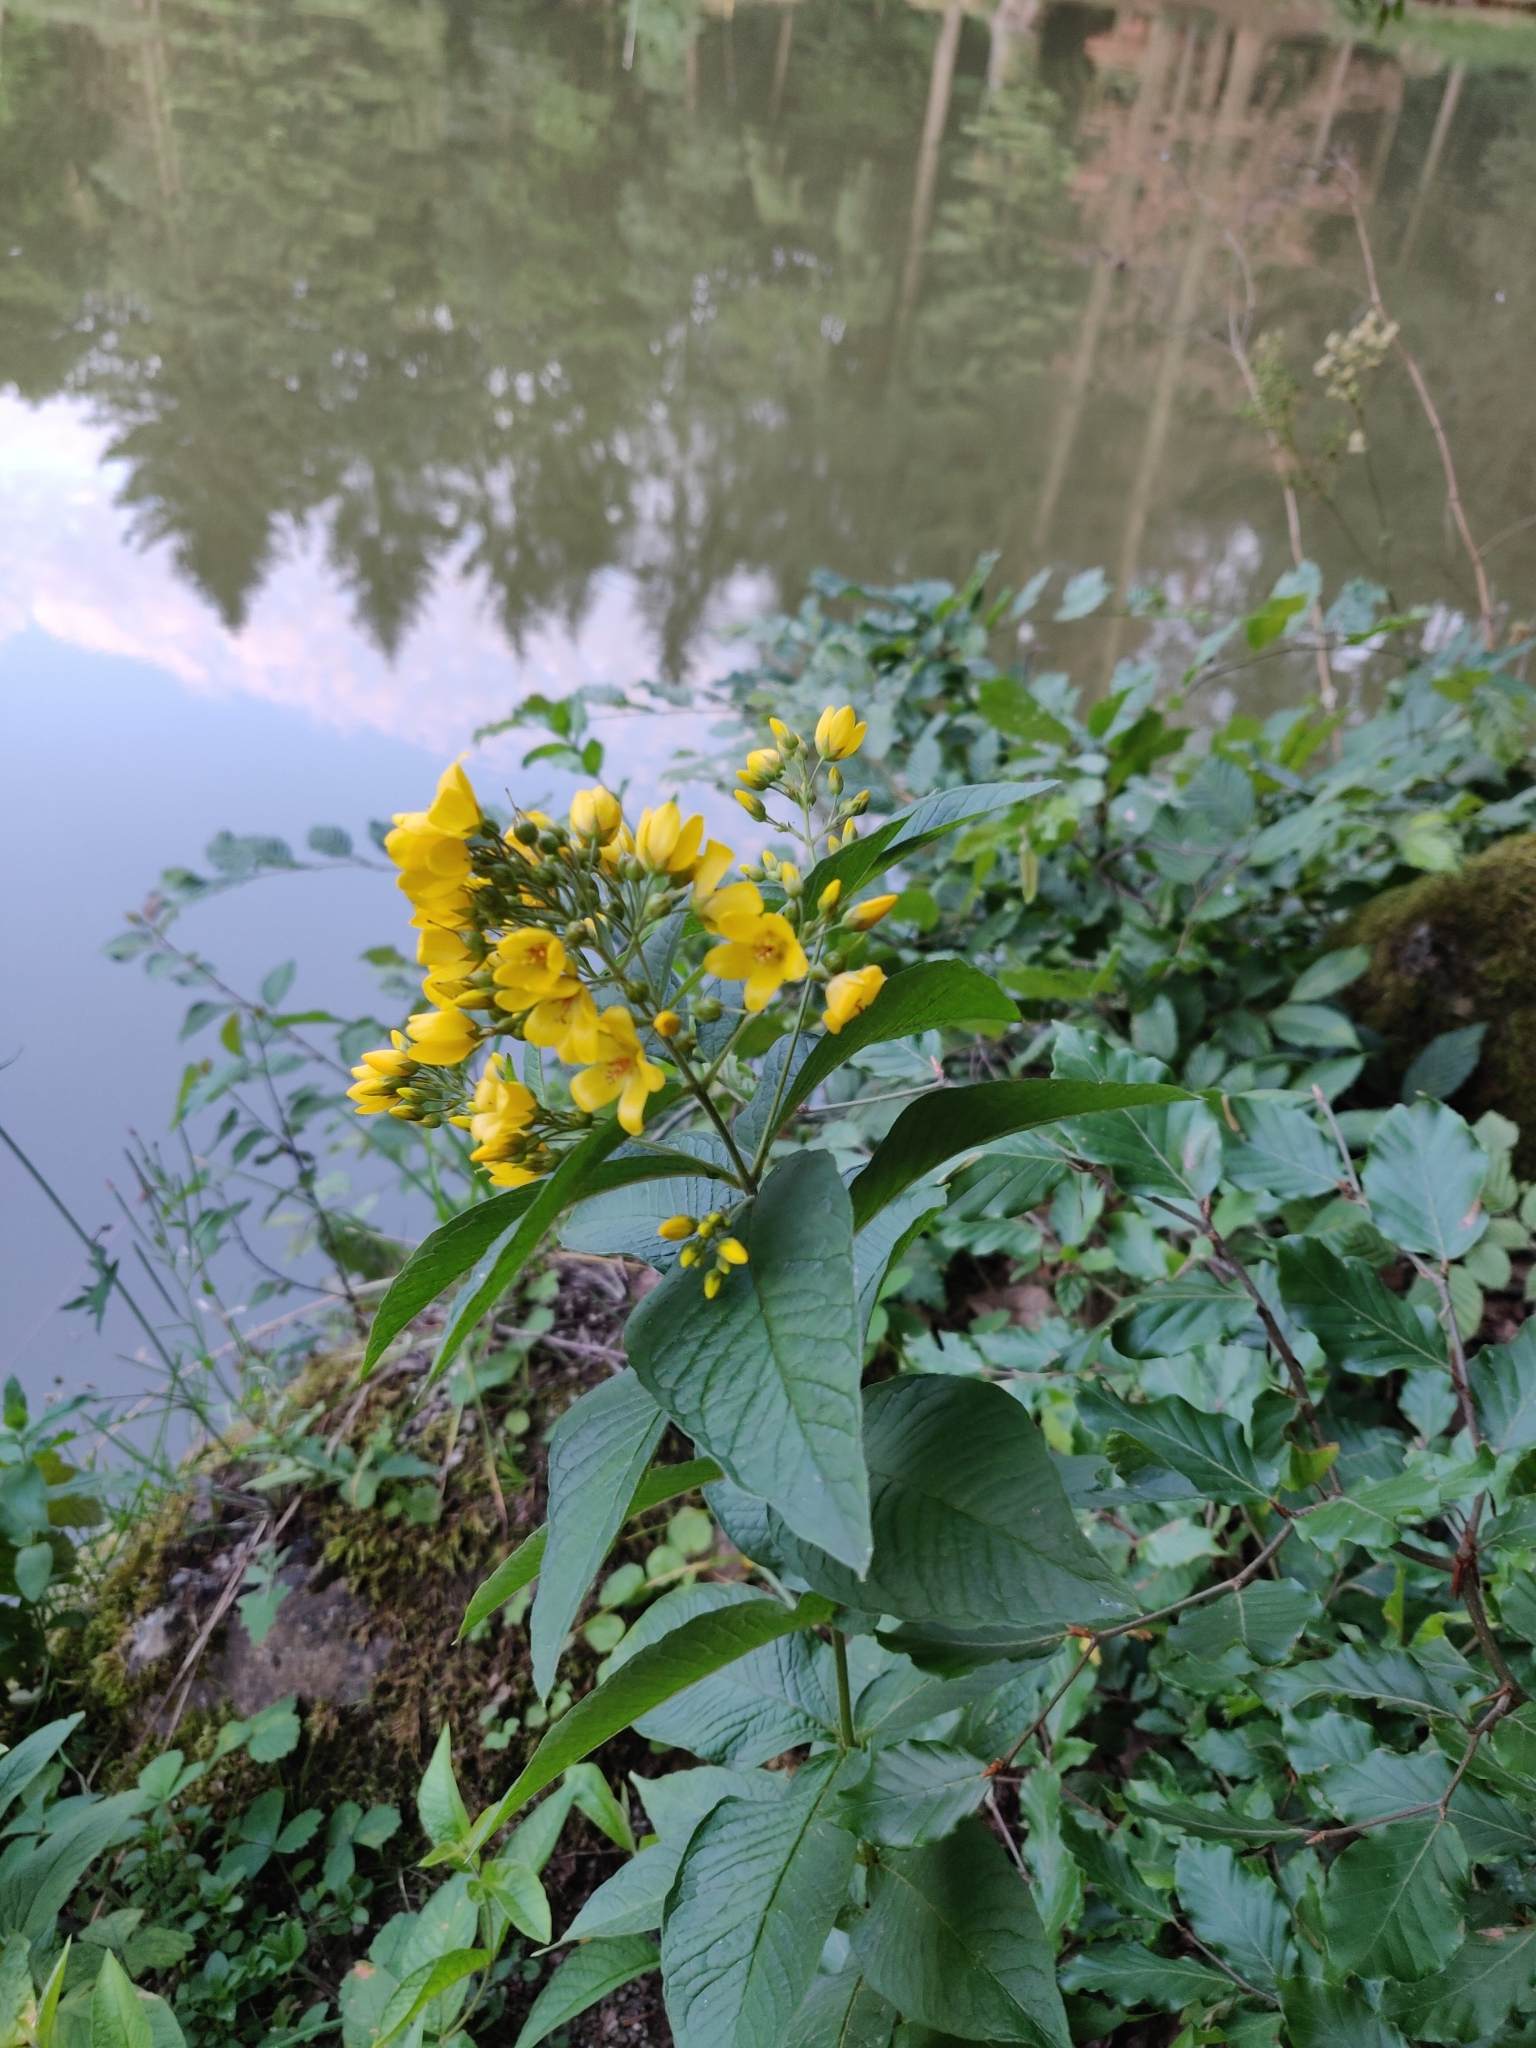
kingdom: Plantae
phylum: Tracheophyta
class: Magnoliopsida
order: Ericales
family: Primulaceae
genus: Lysimachia
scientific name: Lysimachia vulgaris
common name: Yellow loosestrife
